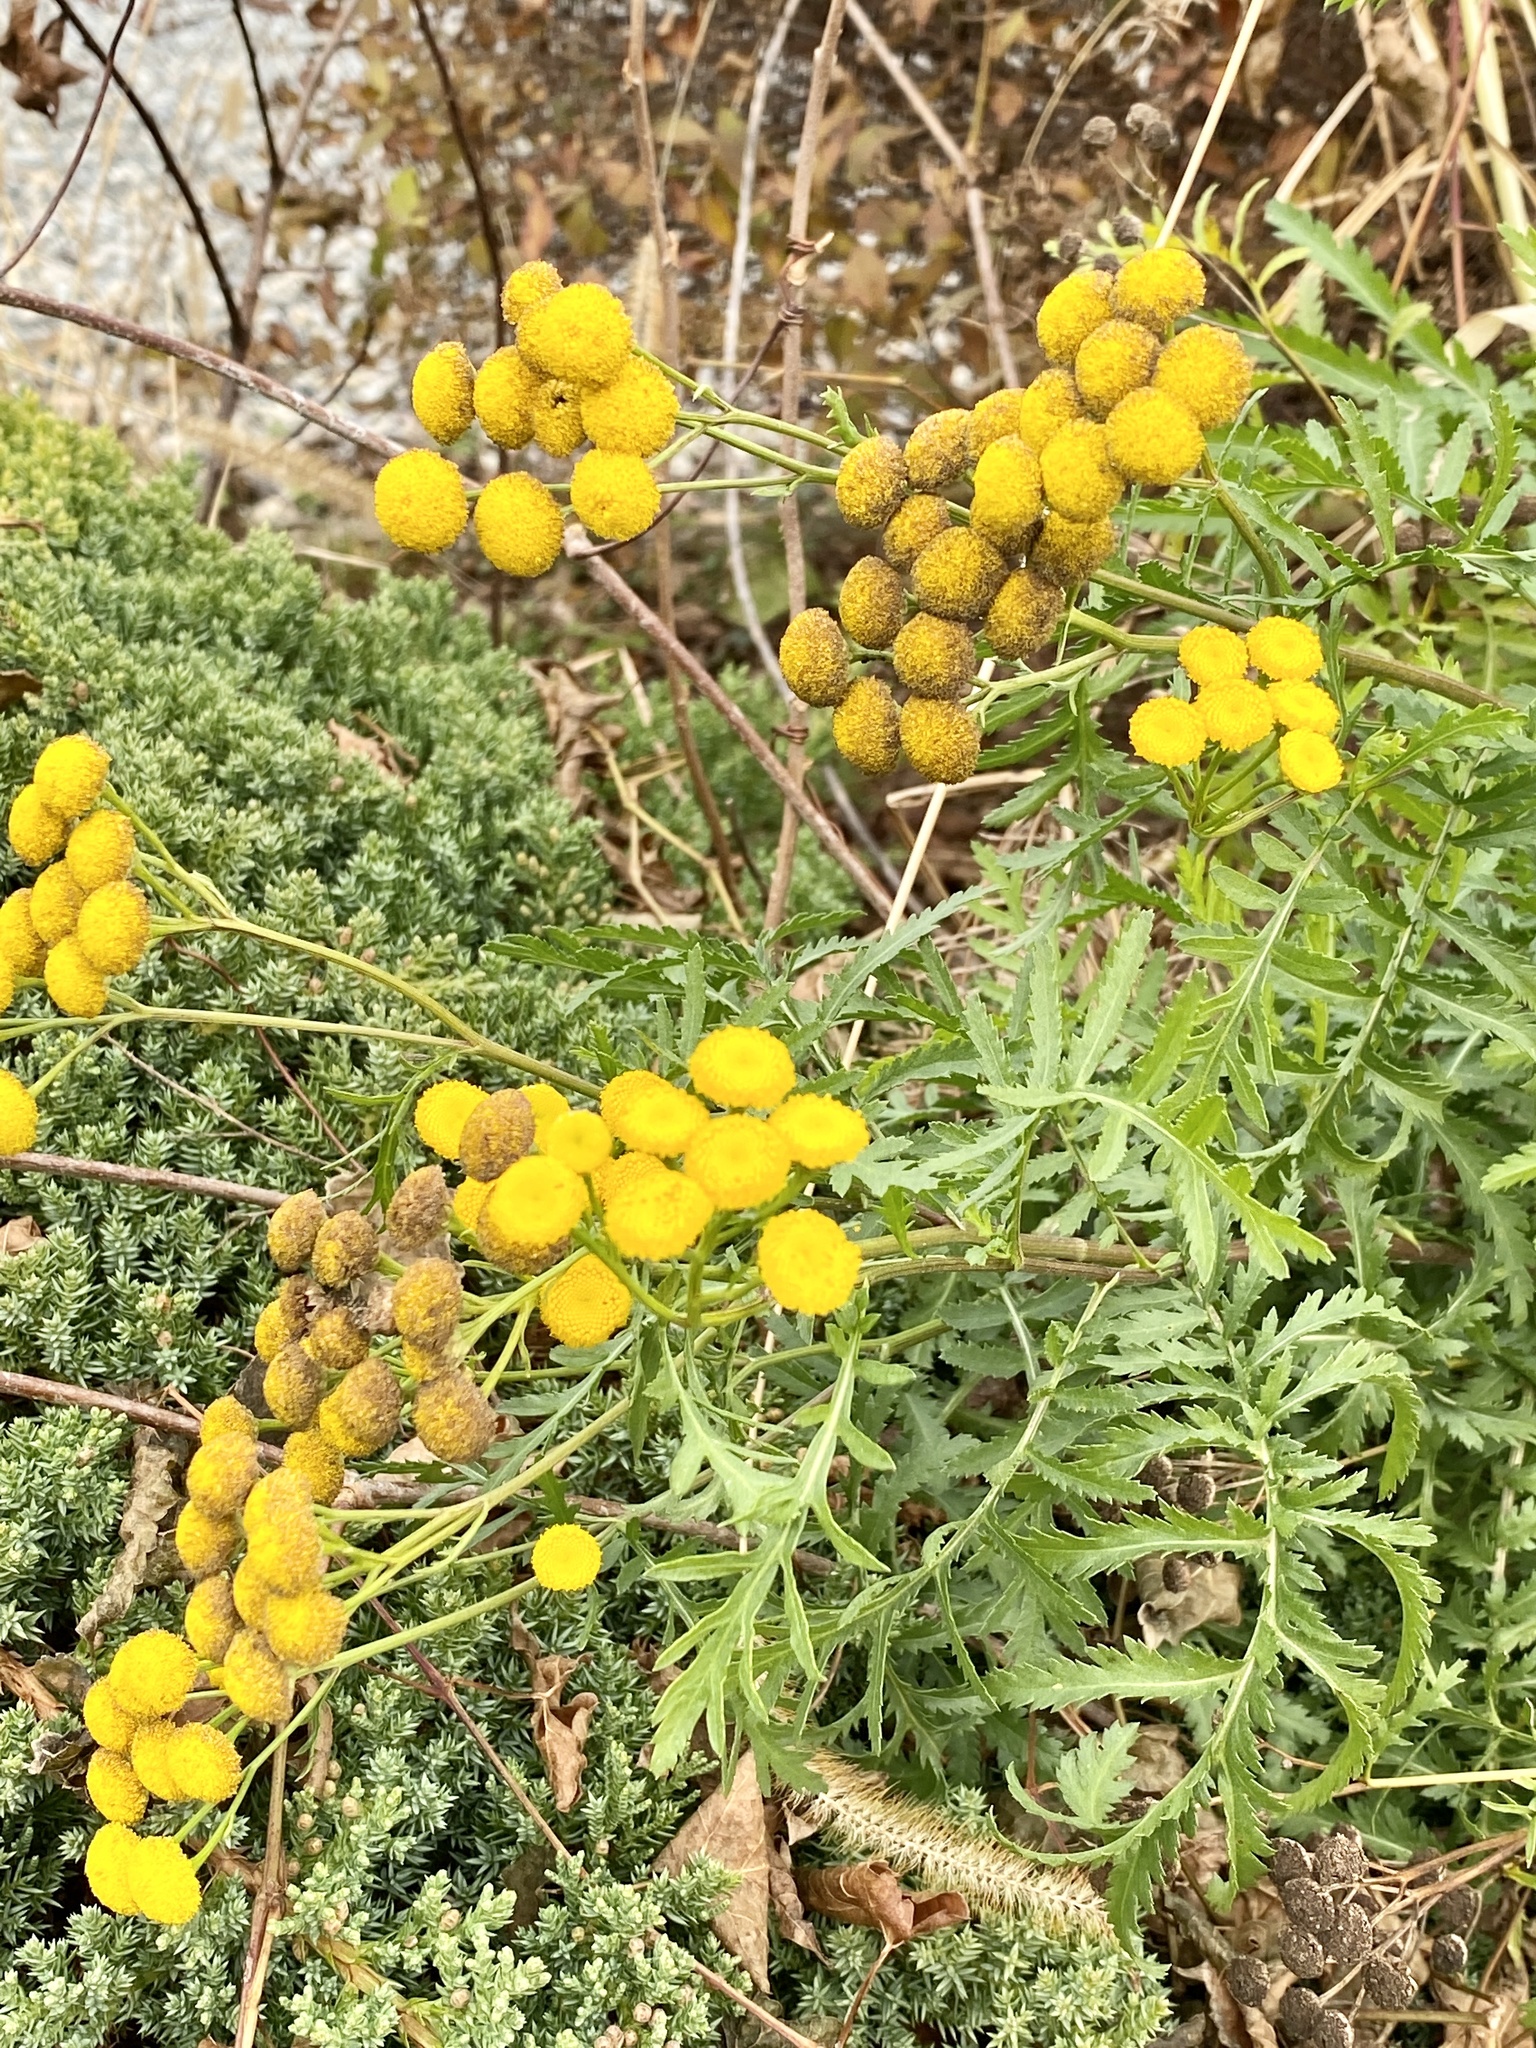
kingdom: Plantae
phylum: Tracheophyta
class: Magnoliopsida
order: Asterales
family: Asteraceae
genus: Tanacetum
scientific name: Tanacetum vulgare
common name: Common tansy
